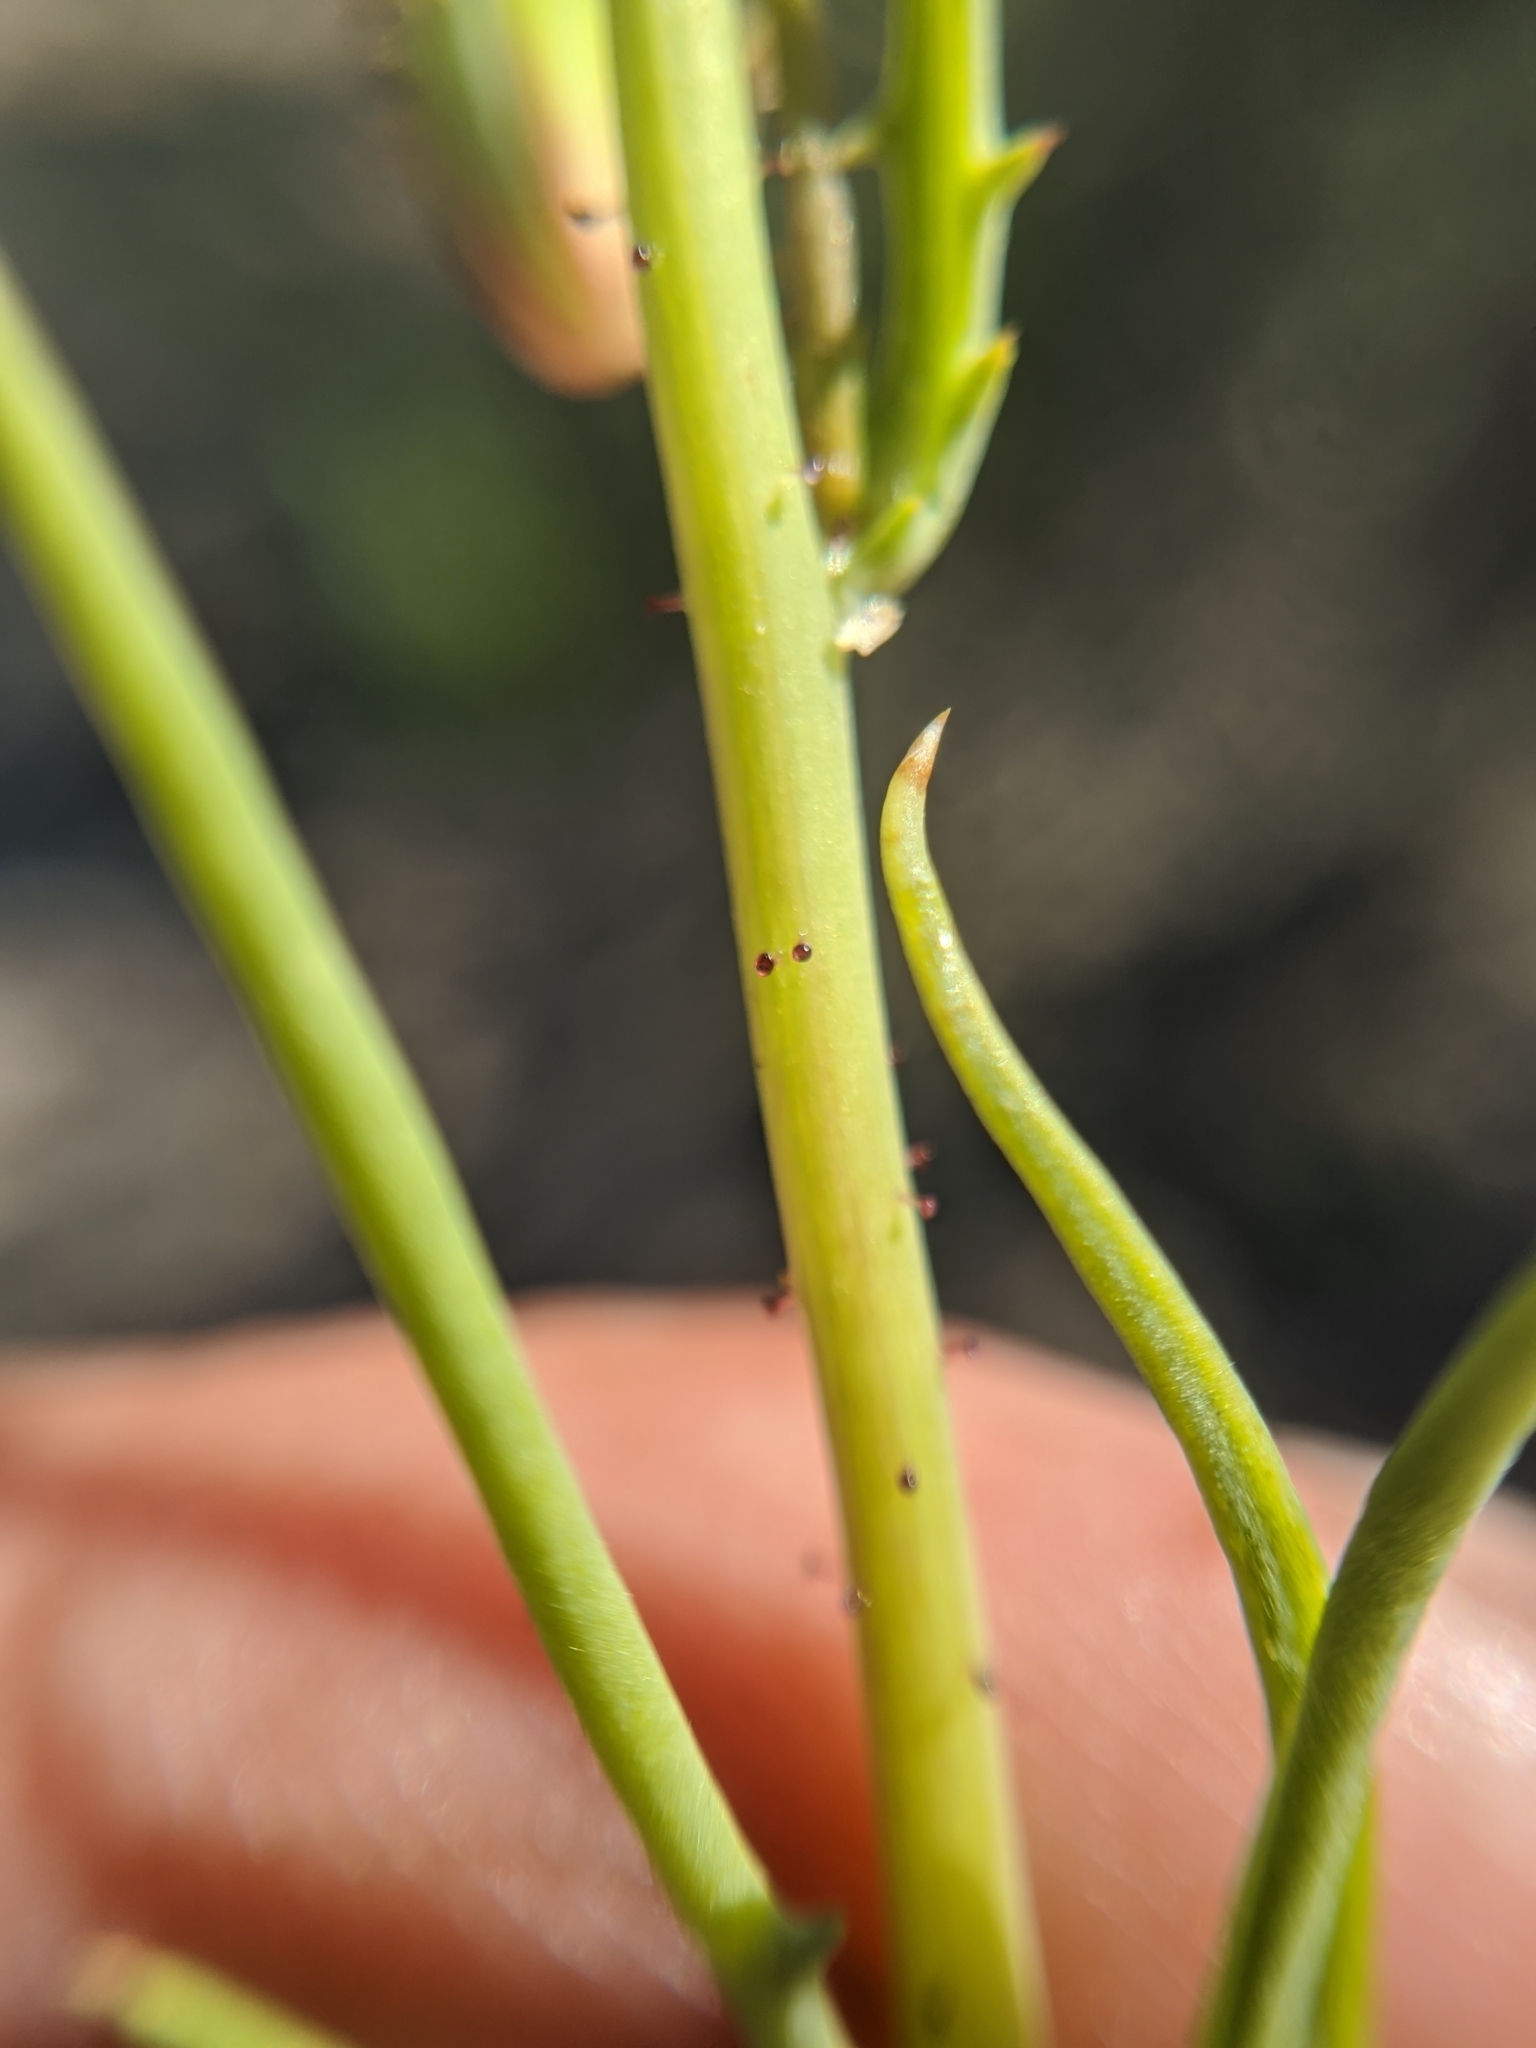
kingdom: Plantae
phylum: Tracheophyta
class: Magnoliopsida
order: Asterales
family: Asteraceae
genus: Calycoseris
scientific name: Calycoseris parryi
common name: Yellow tackstem
